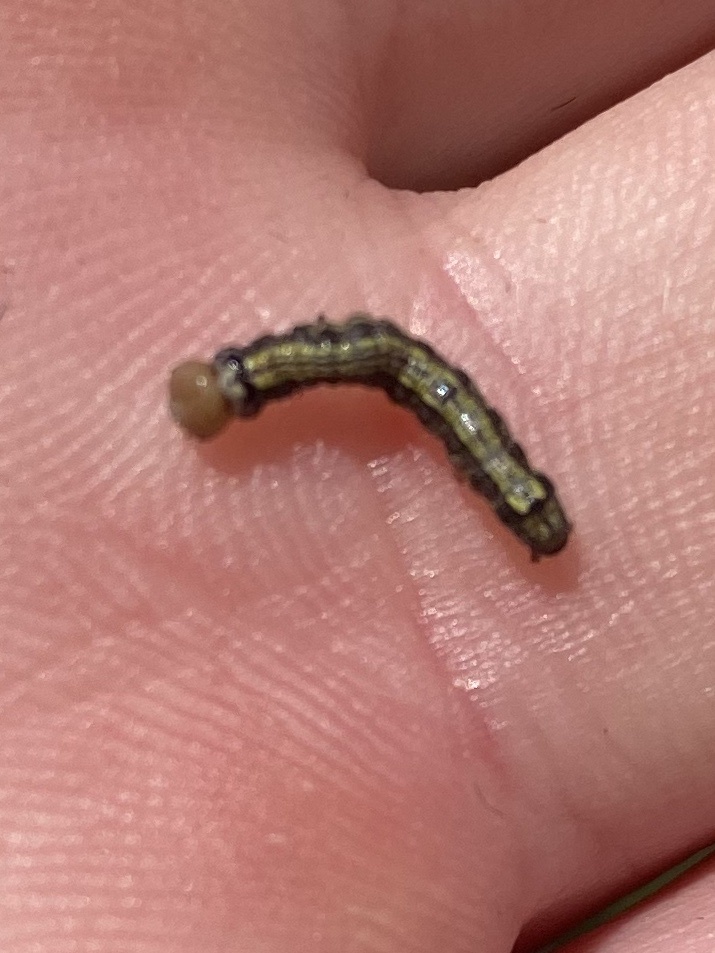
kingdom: Animalia
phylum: Arthropoda
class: Insecta
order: Lepidoptera
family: Notodontidae
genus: Phryganidia
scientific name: Phryganidia californica
